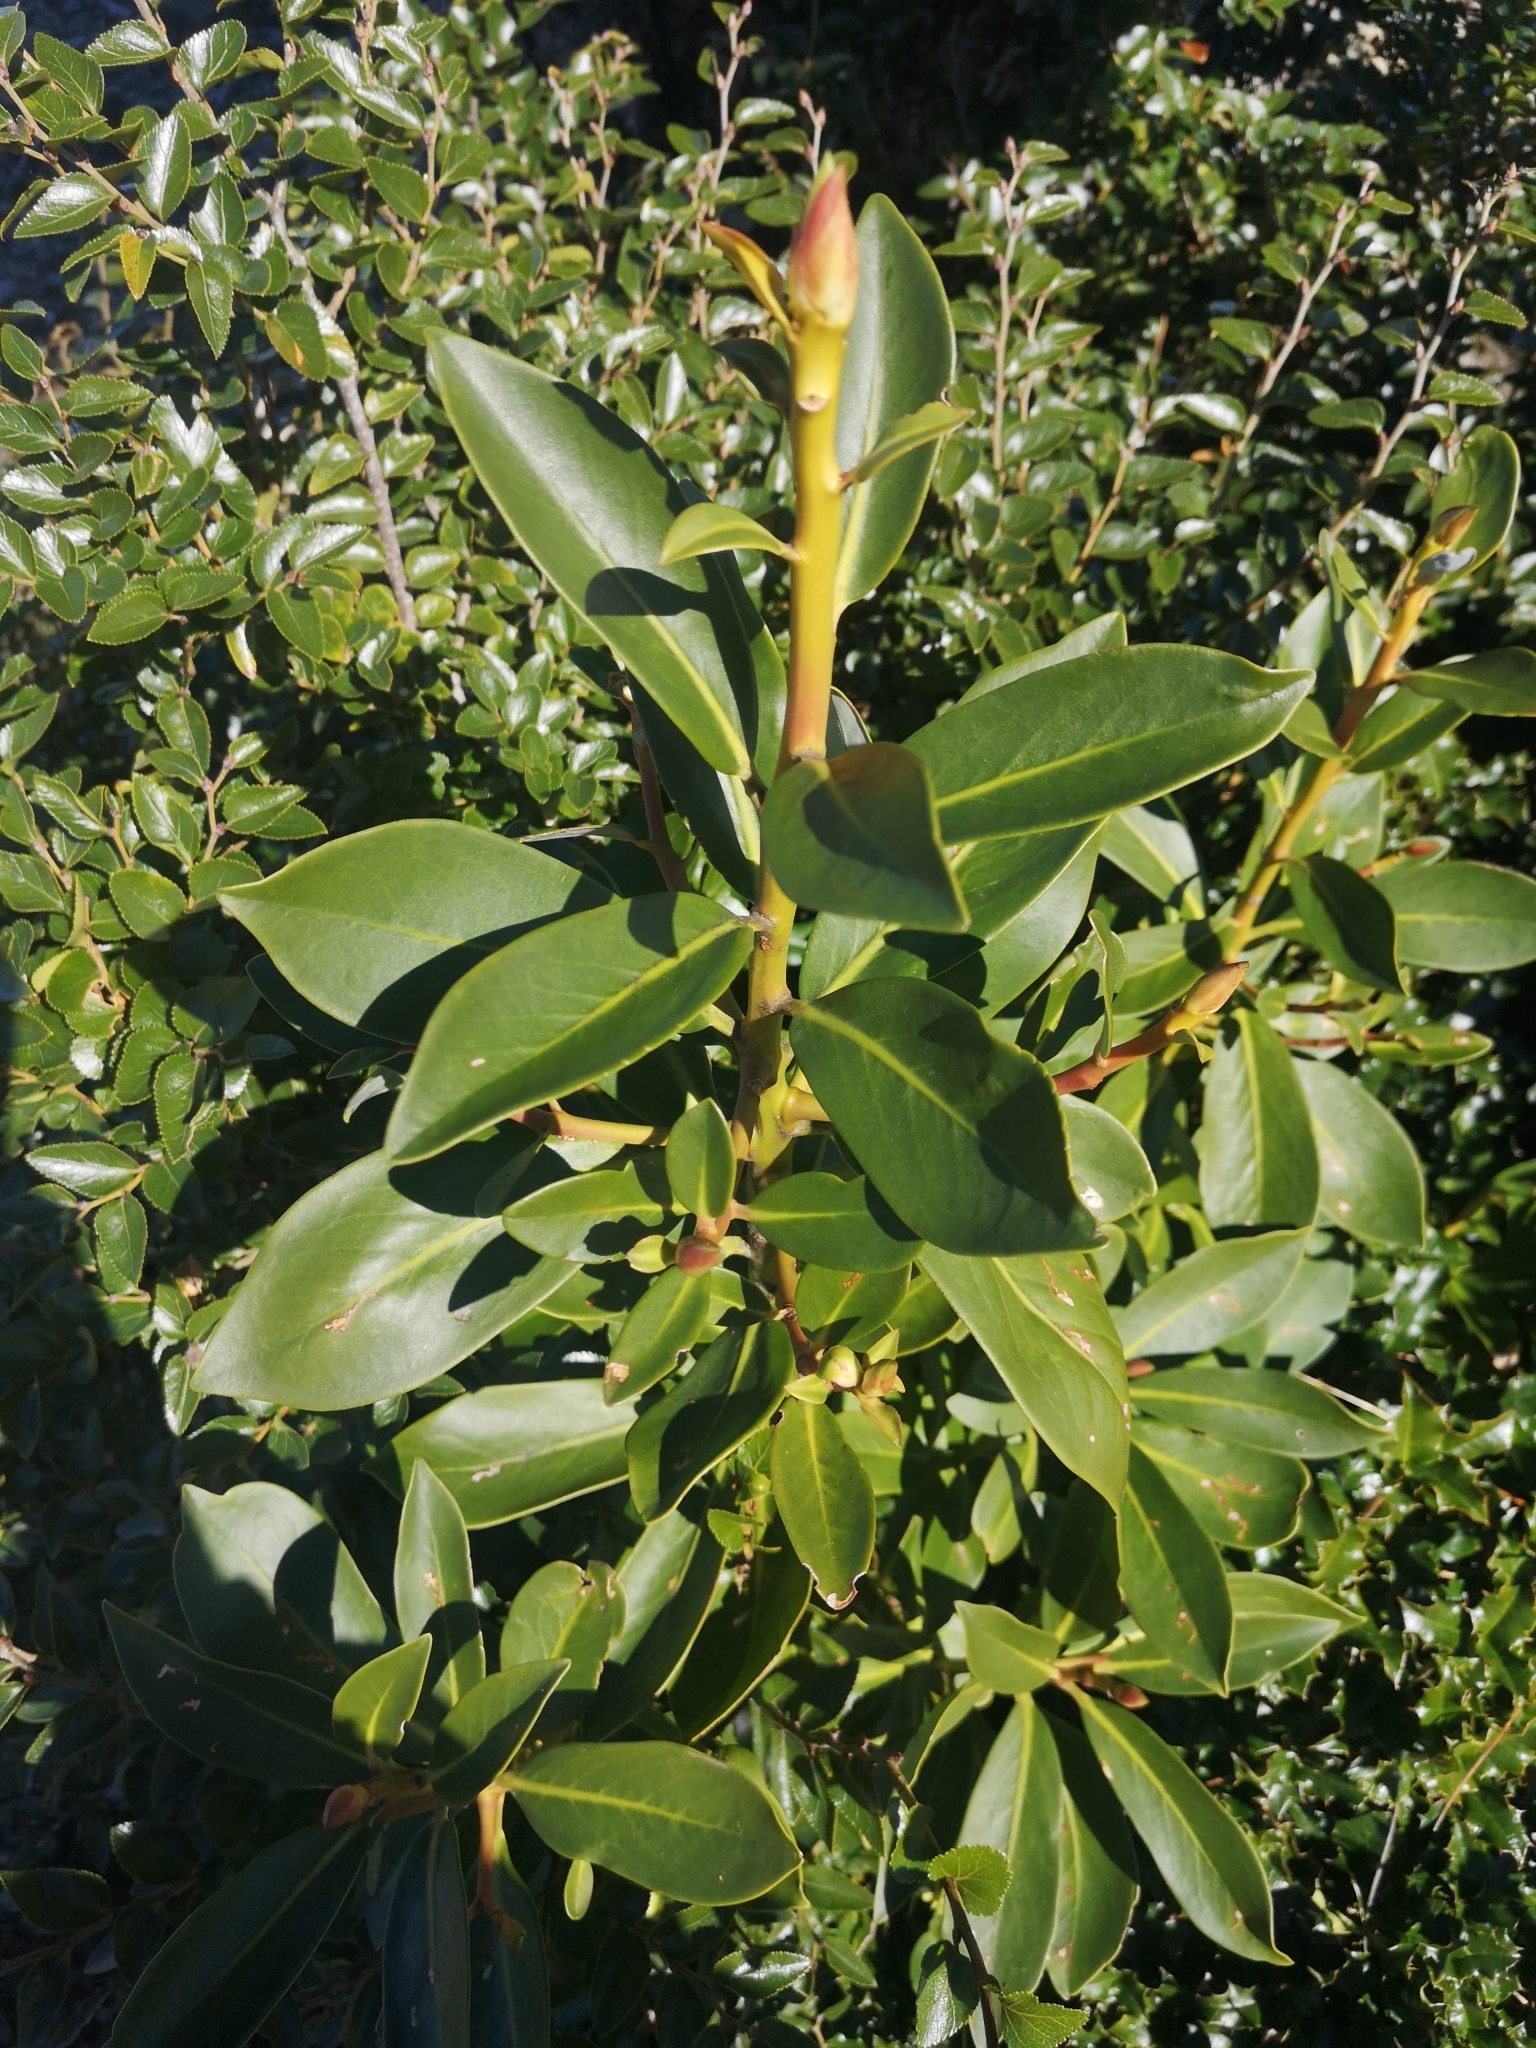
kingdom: Plantae
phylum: Tracheophyta
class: Magnoliopsida
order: Canellales
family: Winteraceae
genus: Drimys
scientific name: Drimys winteri
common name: Winter's-bark
